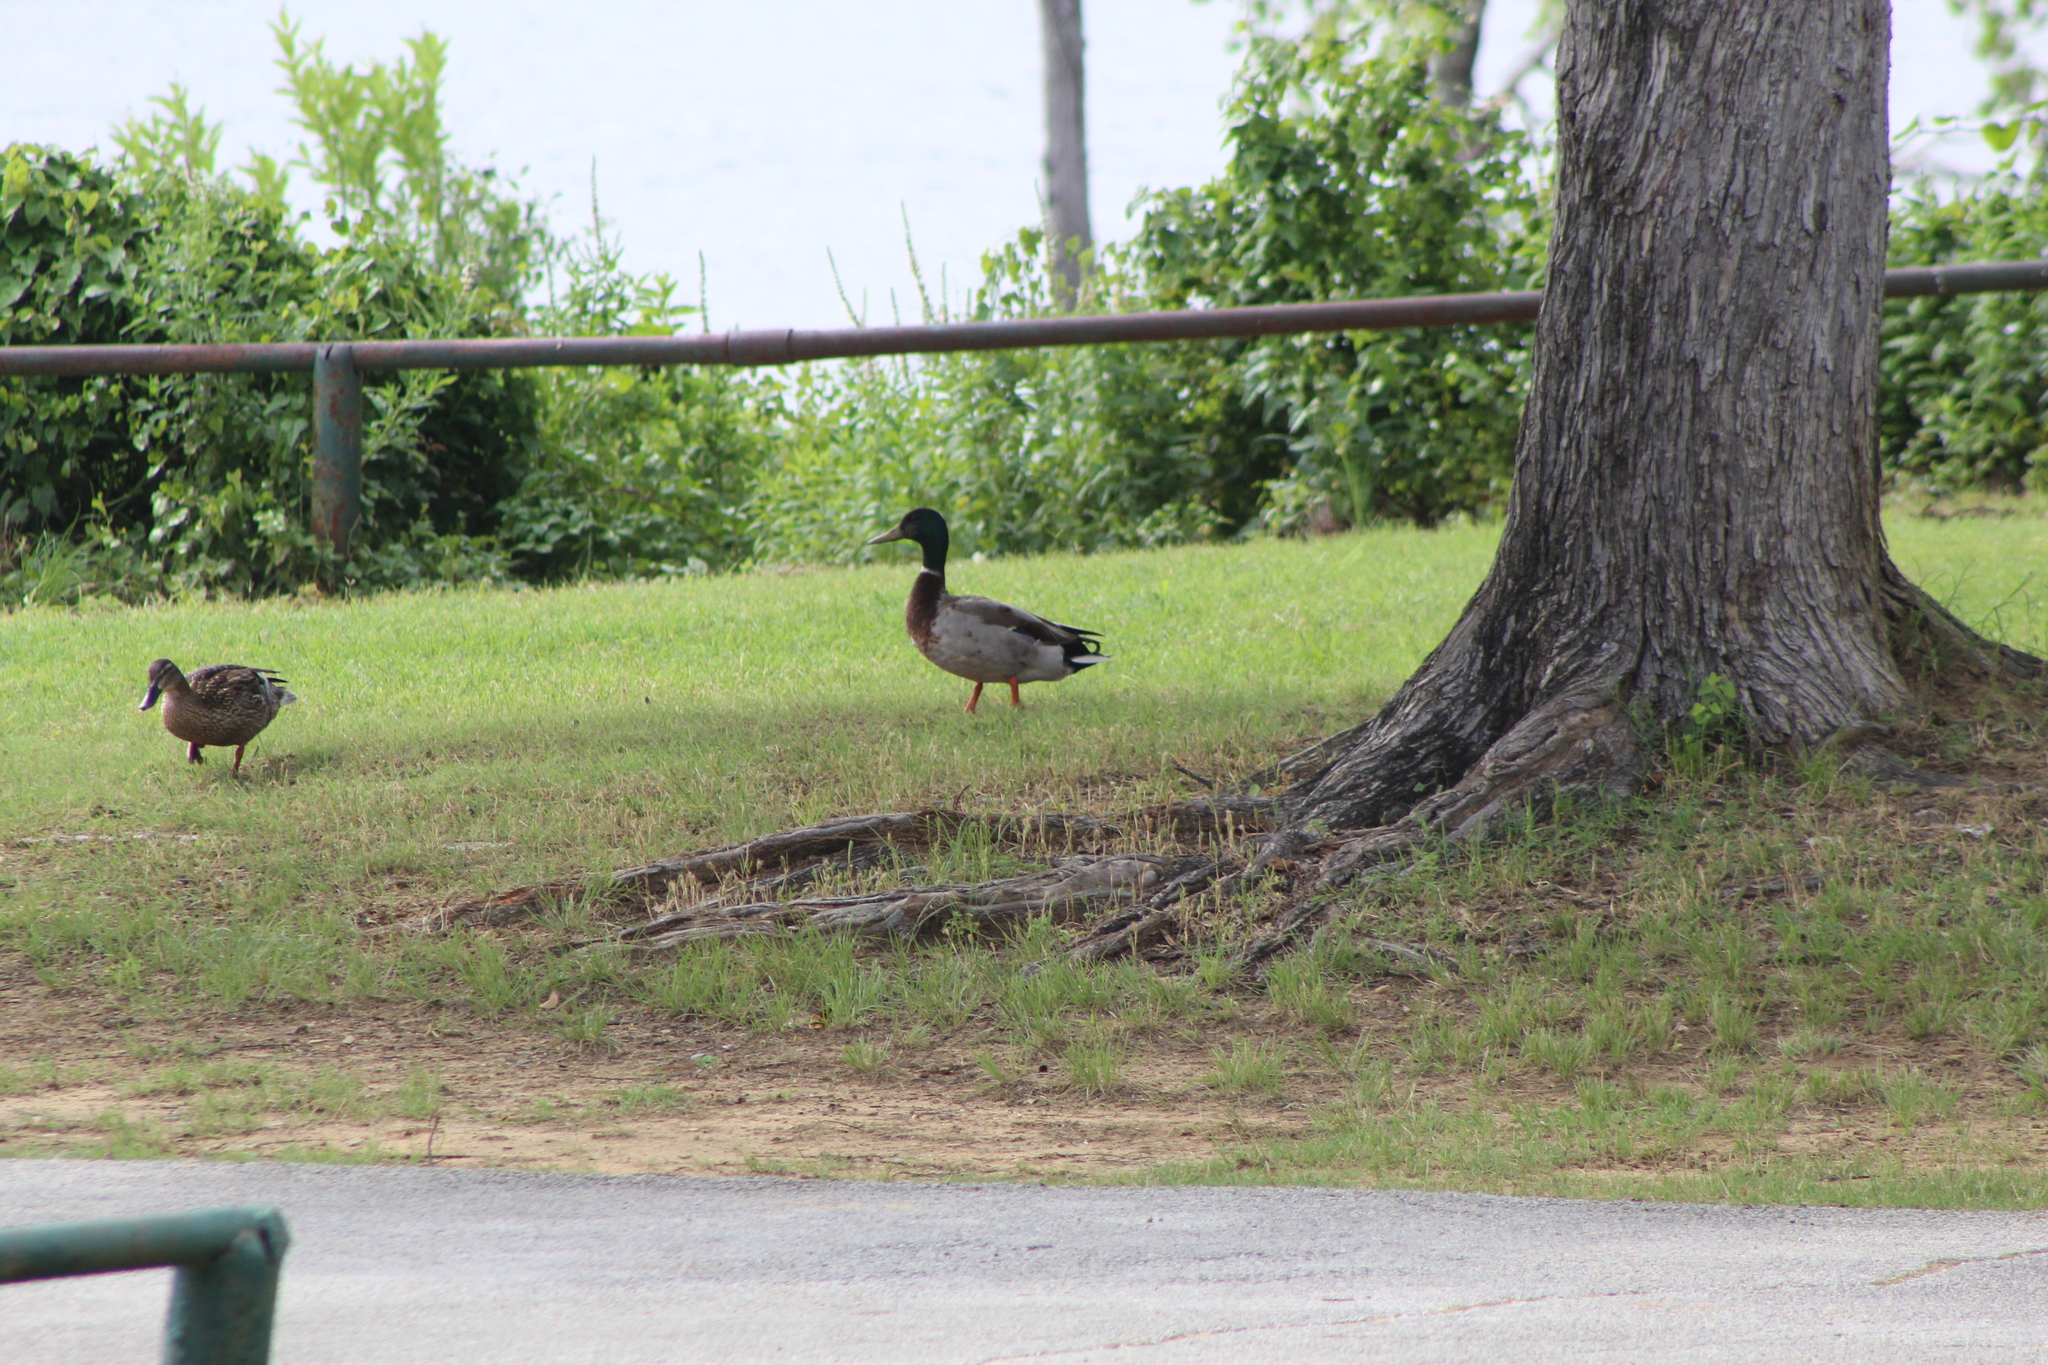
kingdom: Animalia
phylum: Chordata
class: Aves
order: Anseriformes
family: Anatidae
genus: Anas
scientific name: Anas platyrhynchos
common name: Mallard
